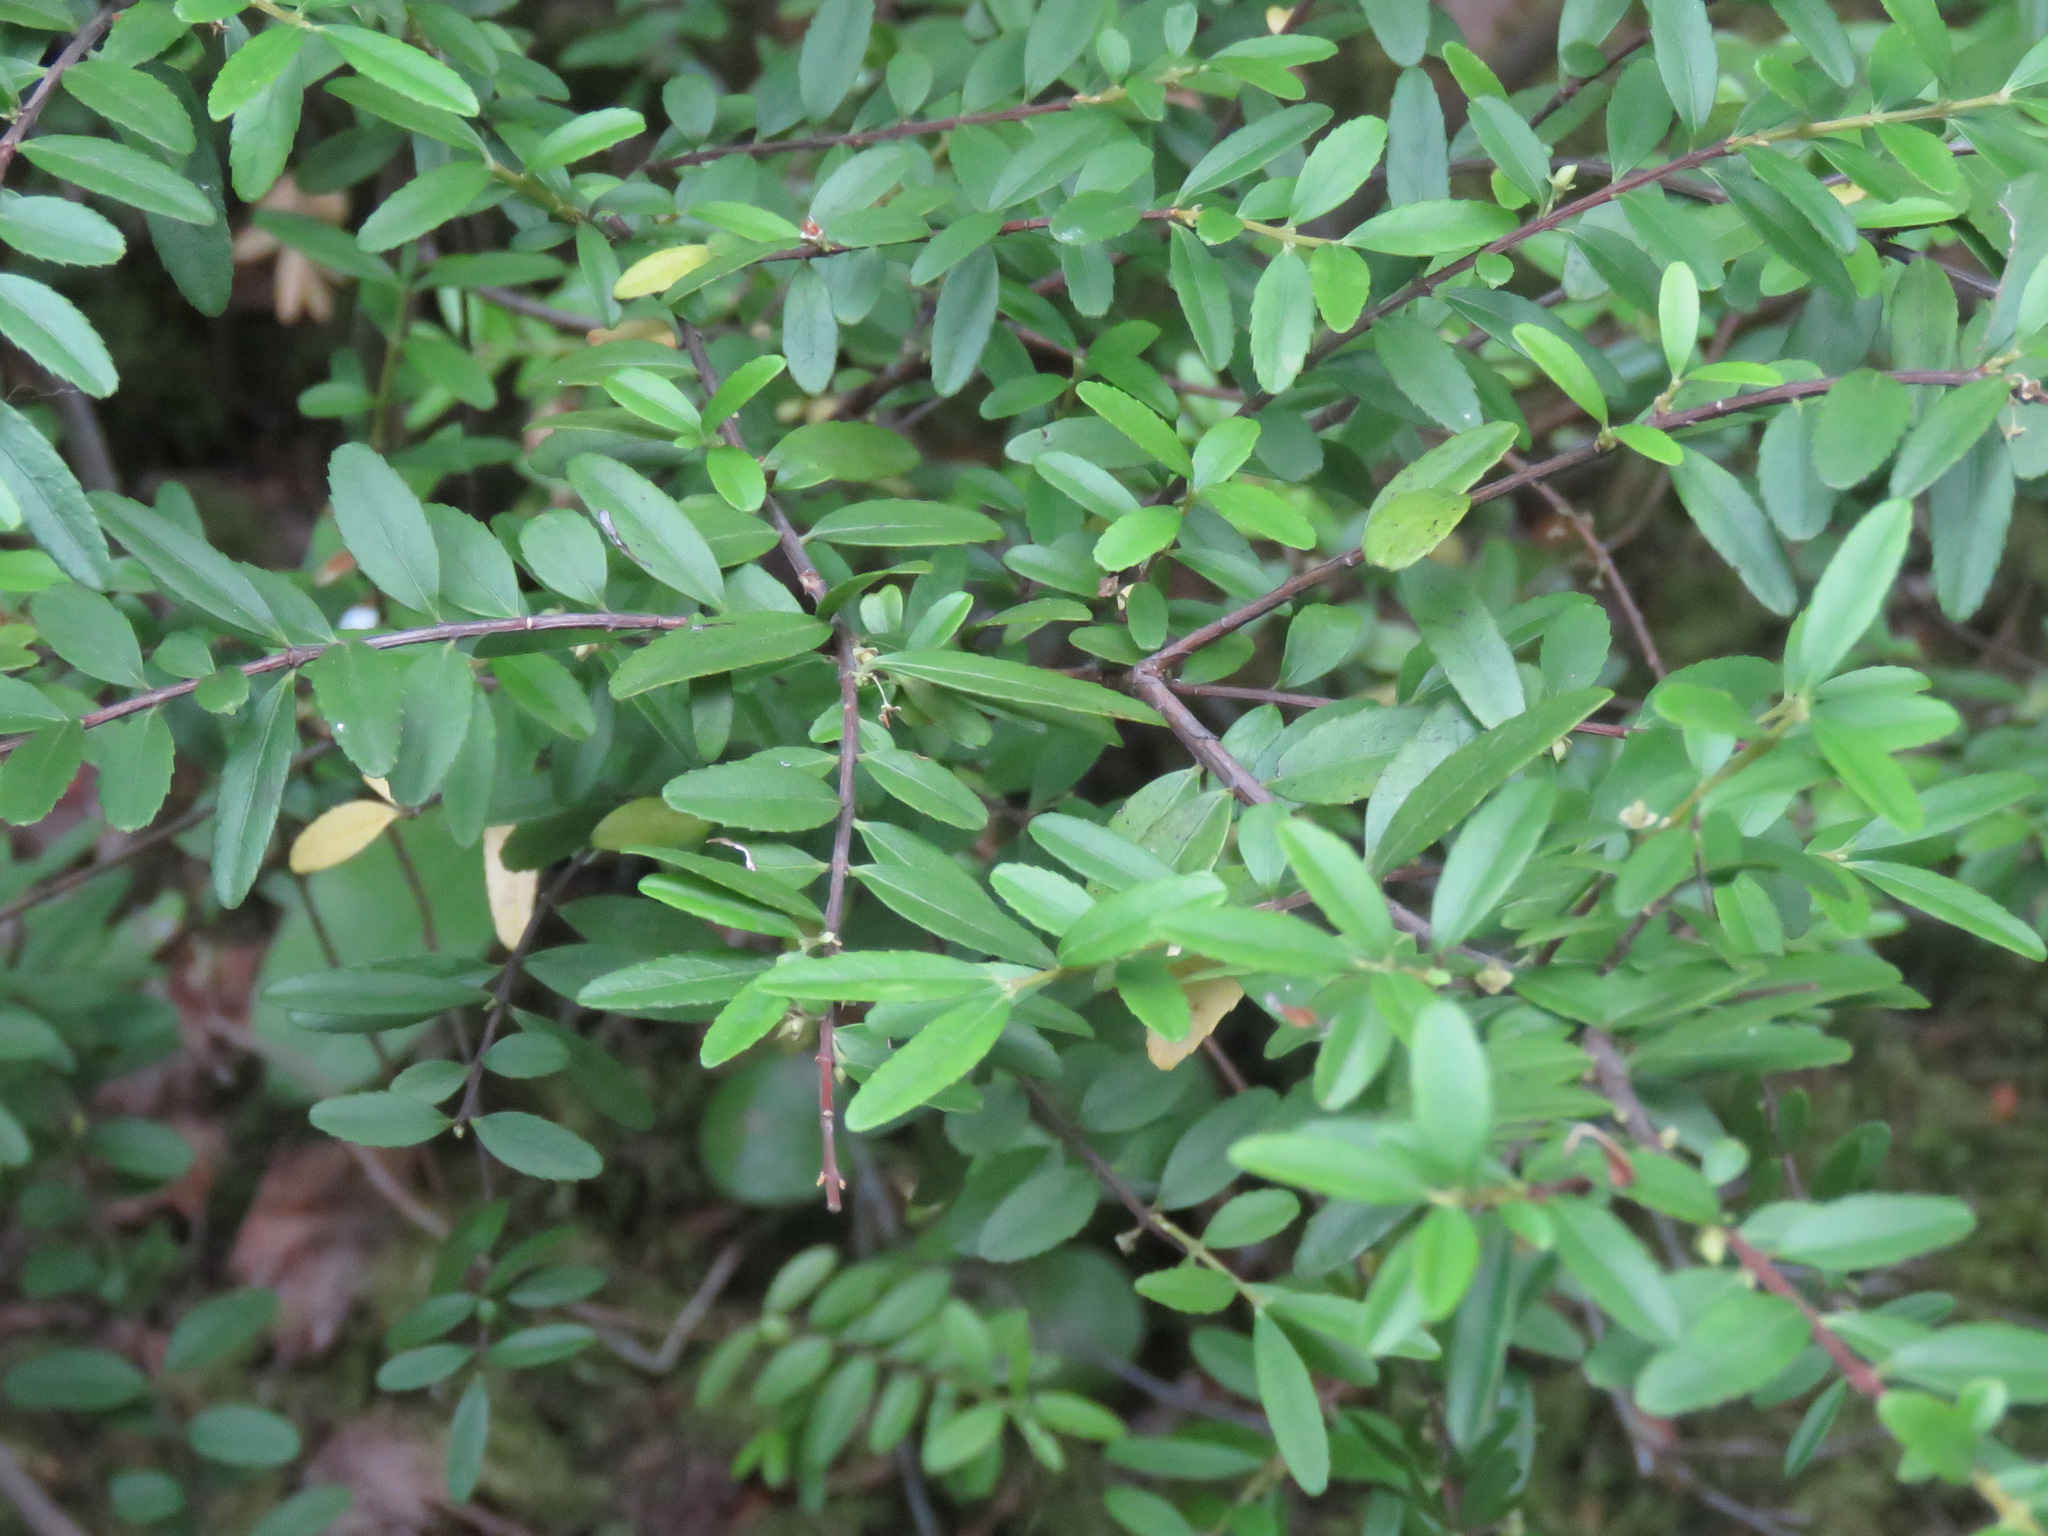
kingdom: Plantae
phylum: Tracheophyta
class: Magnoliopsida
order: Celastrales
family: Celastraceae
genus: Paxistima
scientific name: Paxistima myrsinites
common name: Mountain-lover
